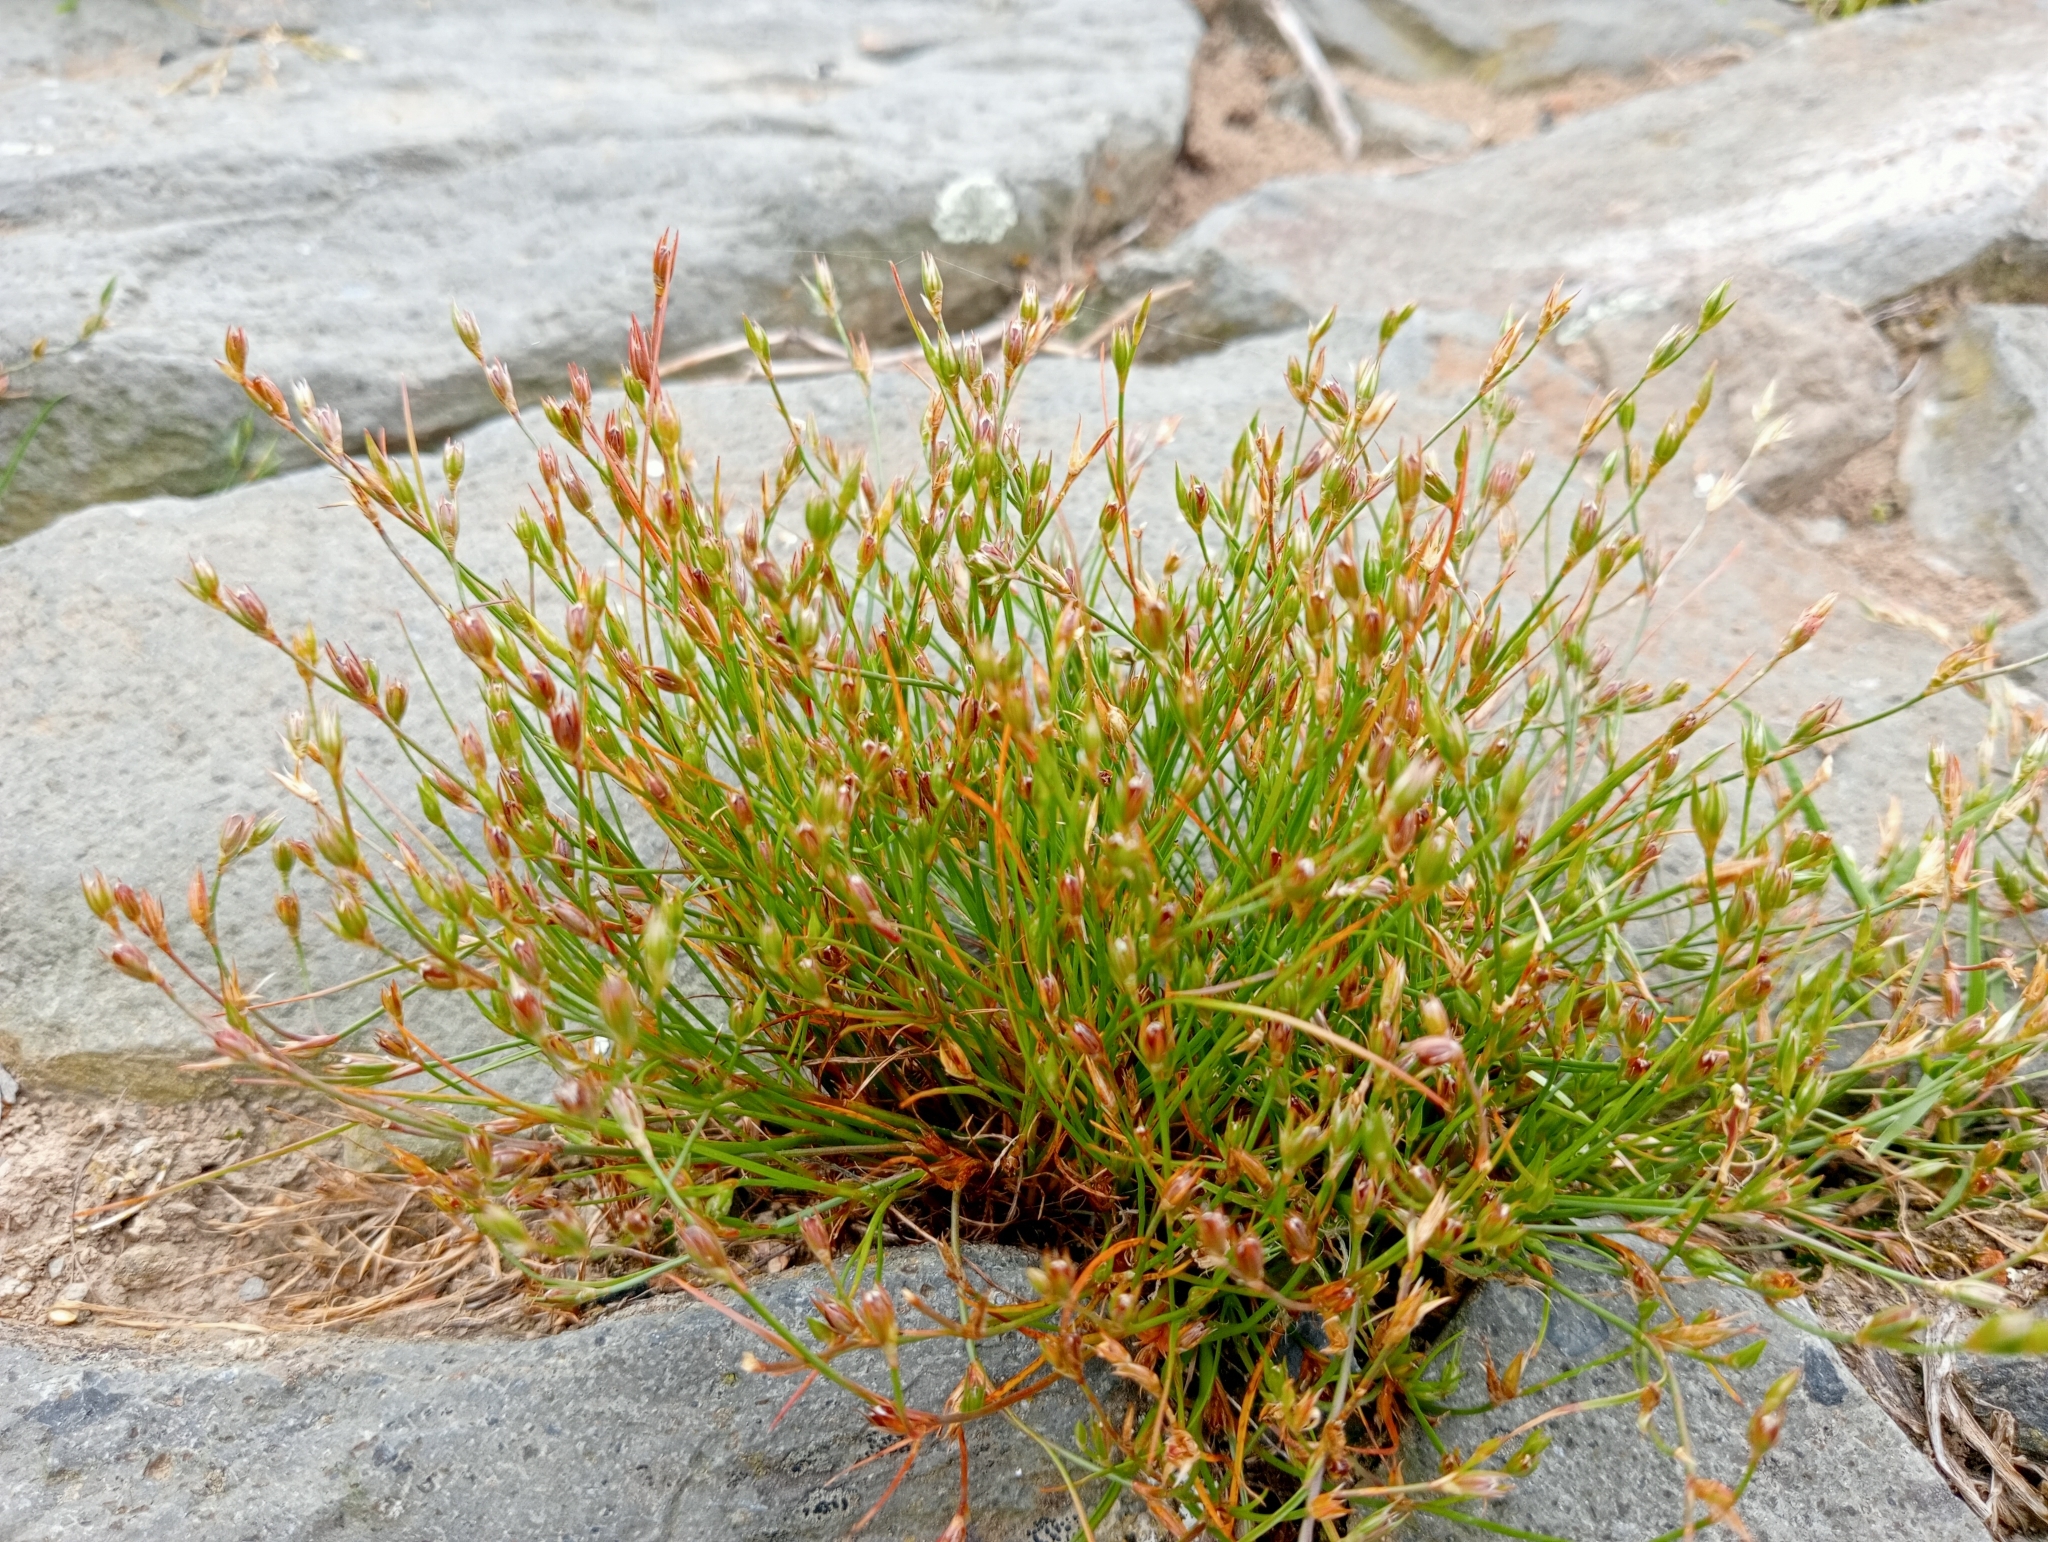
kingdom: Plantae
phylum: Tracheophyta
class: Liliopsida
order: Poales
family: Juncaceae
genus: Juncus
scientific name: Juncus bufonius
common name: Toad rush
